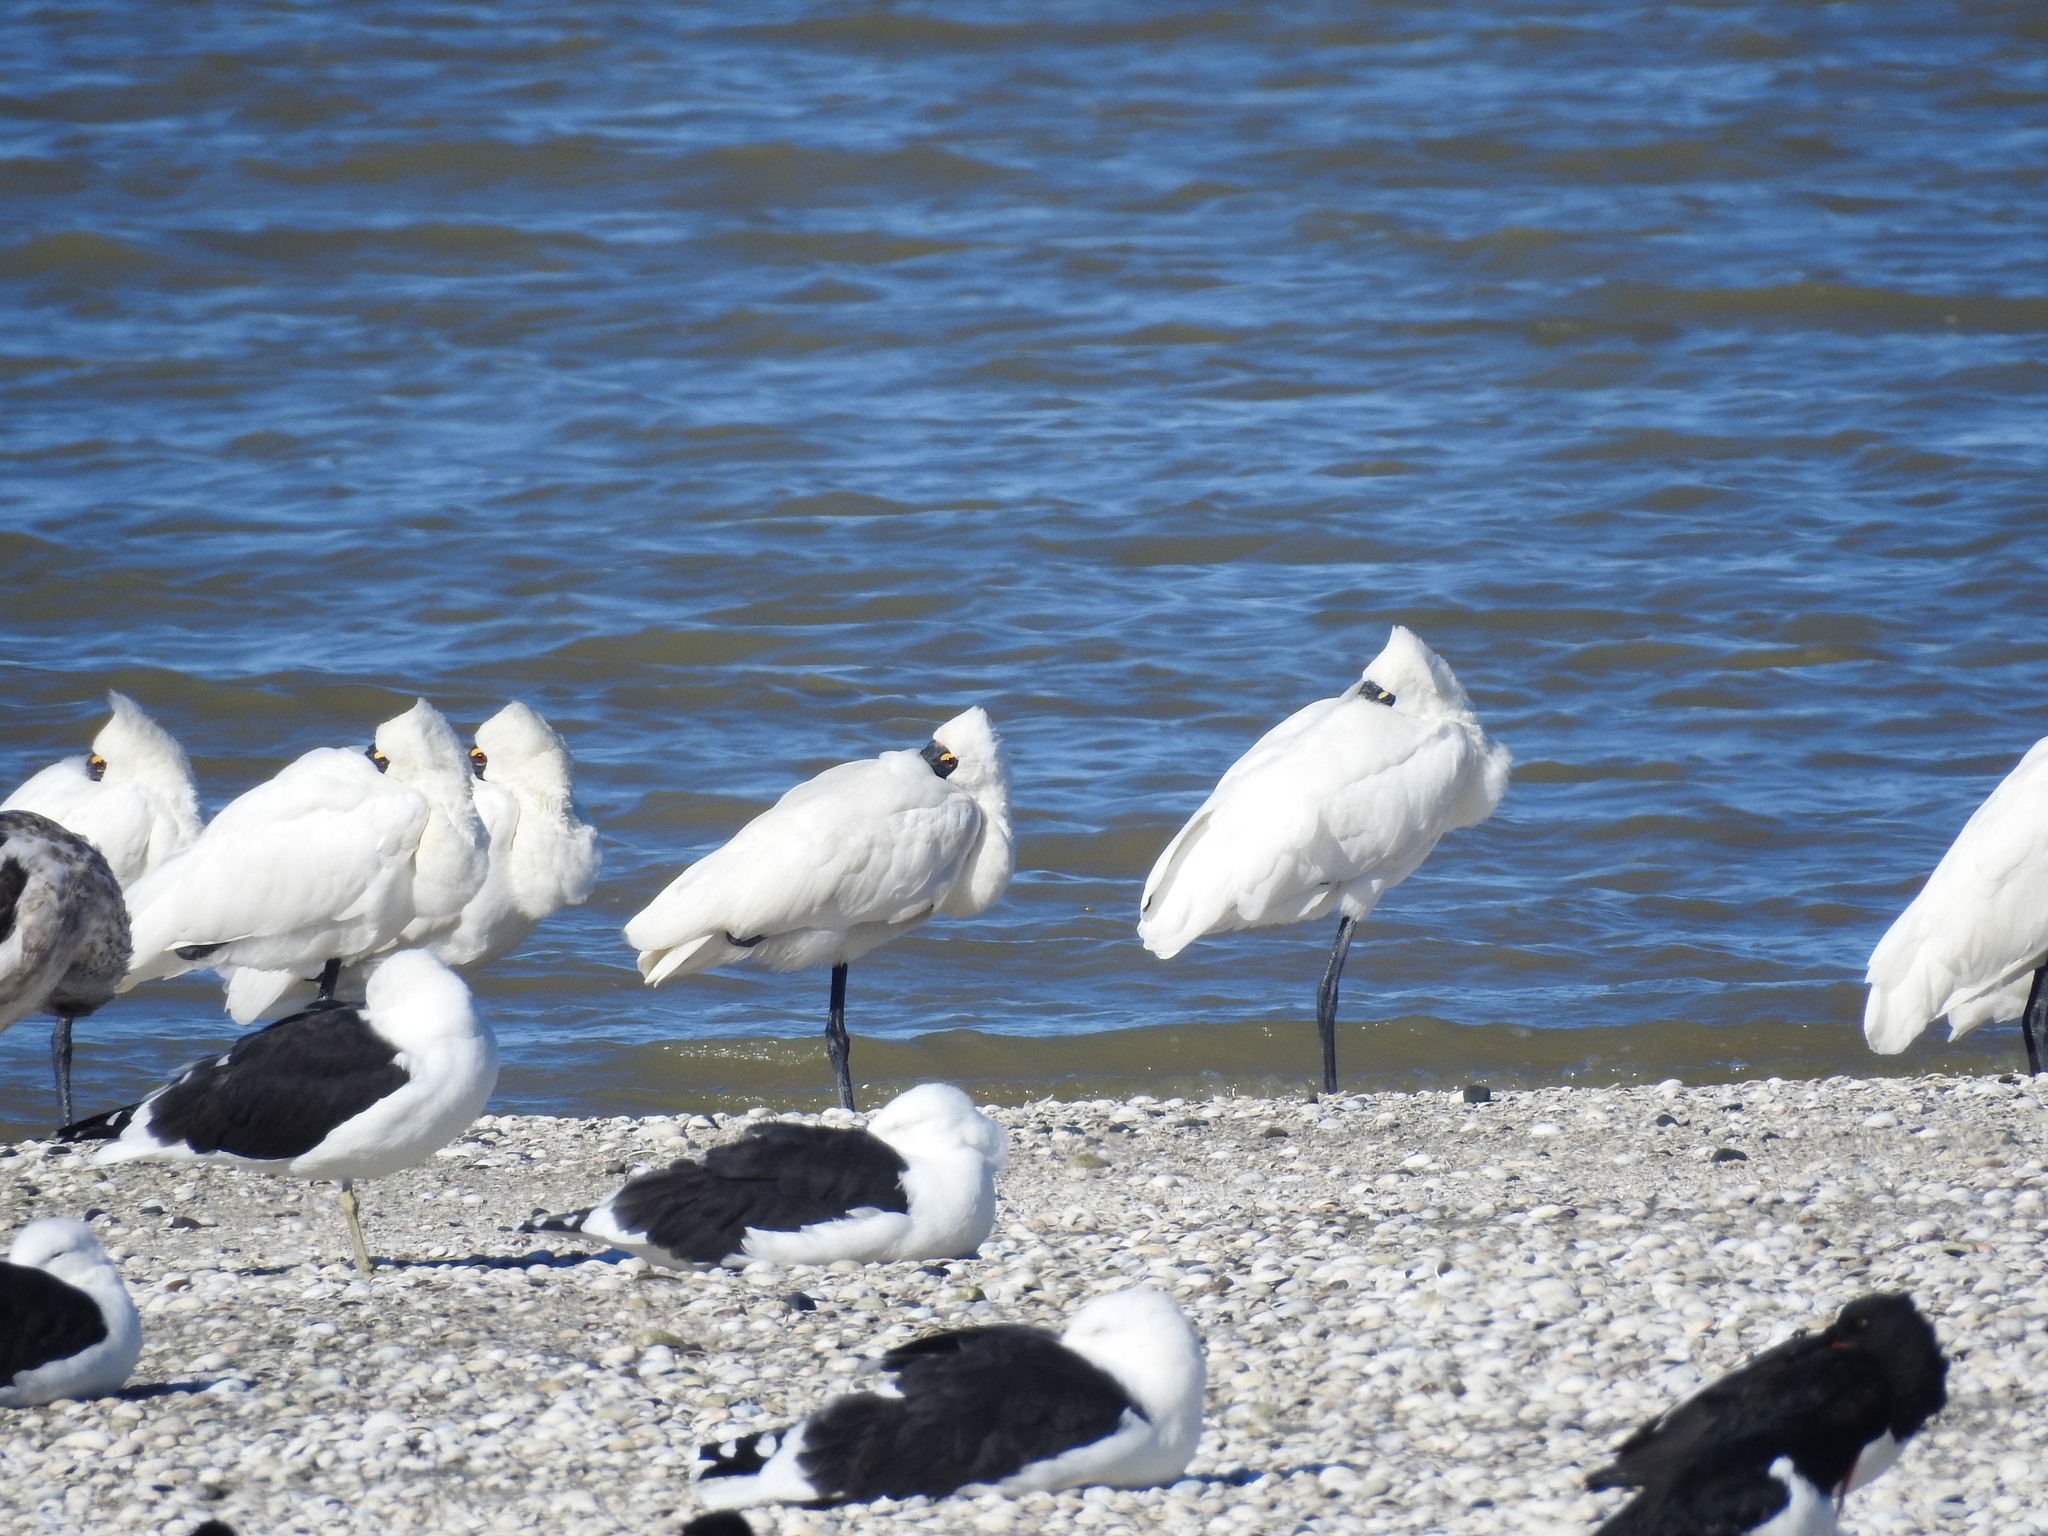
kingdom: Animalia
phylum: Chordata
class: Aves
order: Pelecaniformes
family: Threskiornithidae
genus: Platalea
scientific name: Platalea regia
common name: Royal spoonbill
